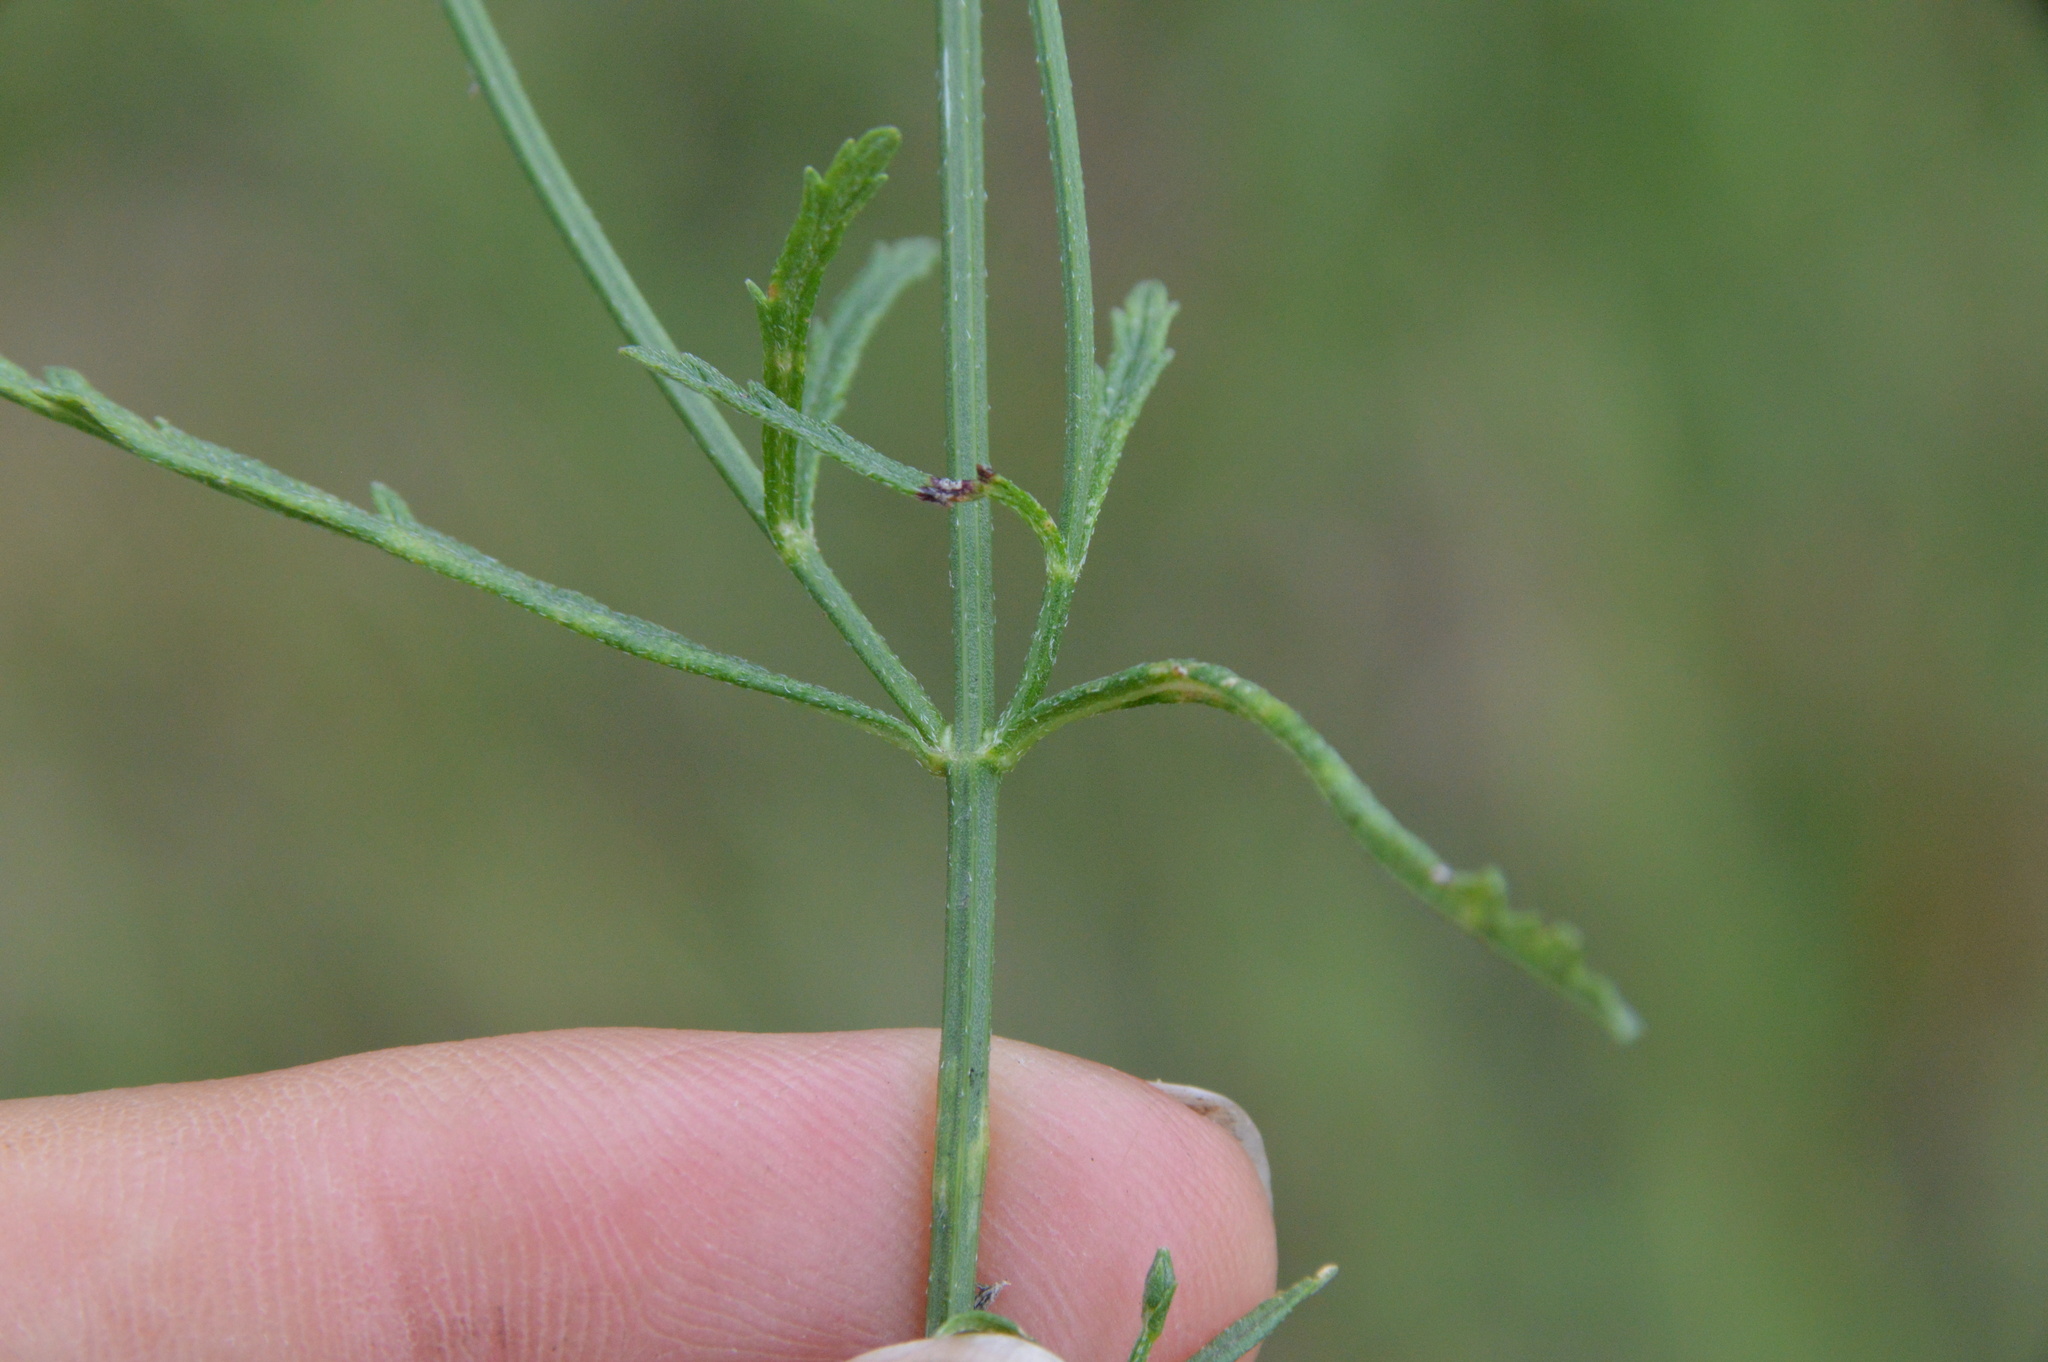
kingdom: Plantae
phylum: Tracheophyta
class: Magnoliopsida
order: Lamiales
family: Verbenaceae
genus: Verbena
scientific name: Verbena halei
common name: Texas vervain
